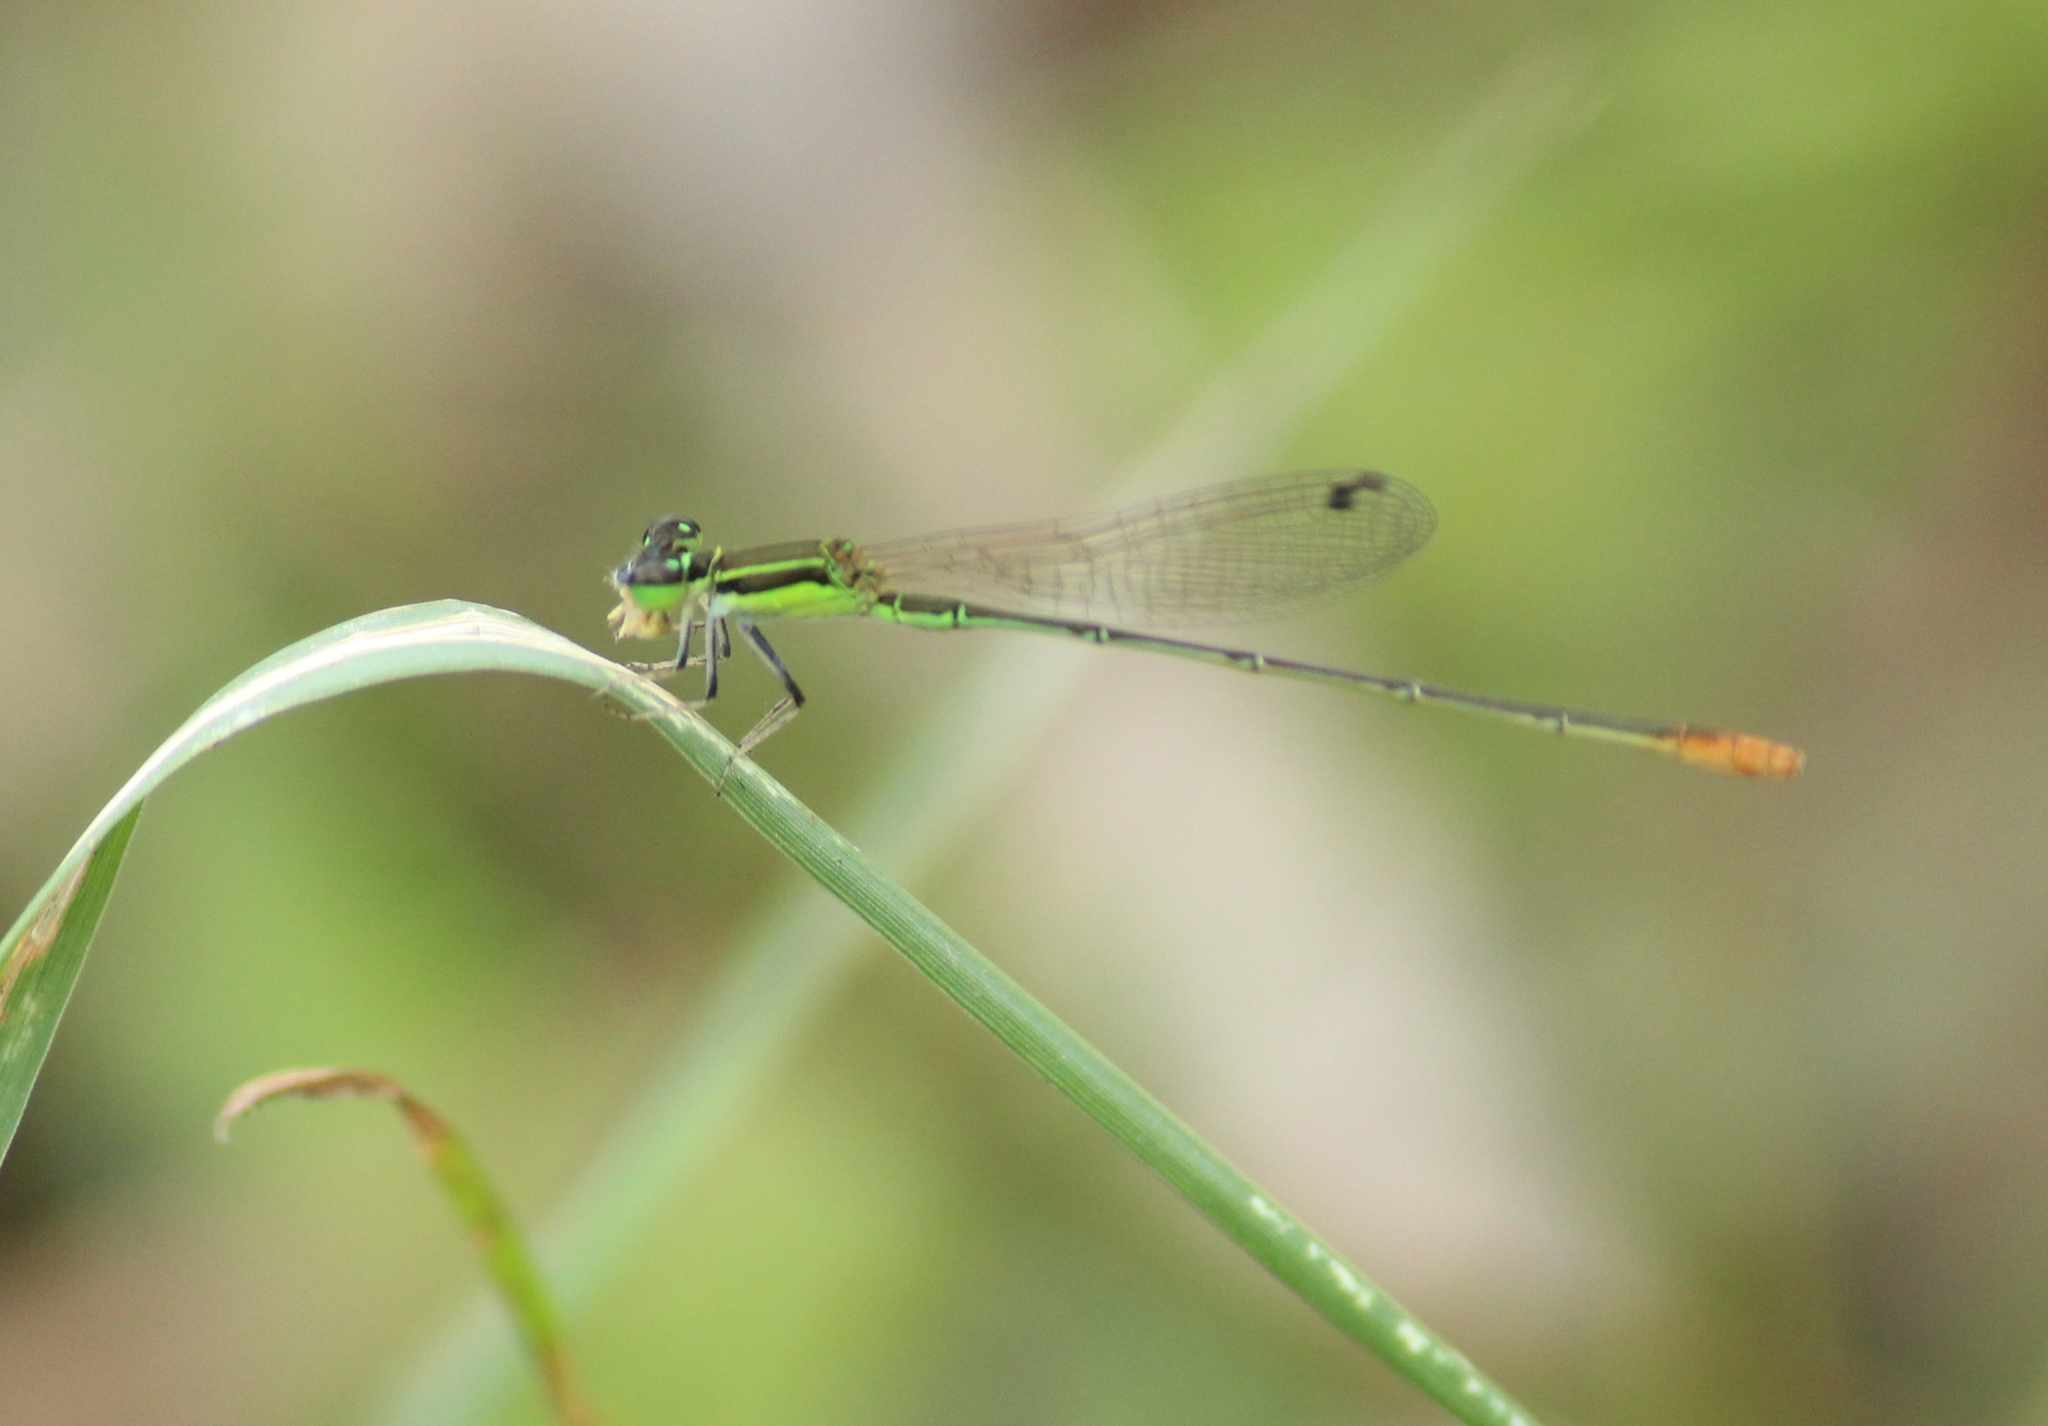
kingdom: Animalia
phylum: Arthropoda
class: Insecta
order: Odonata
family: Coenagrionidae
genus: Agriocnemis
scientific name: Agriocnemis pygmaea
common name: Pygmy wisp
